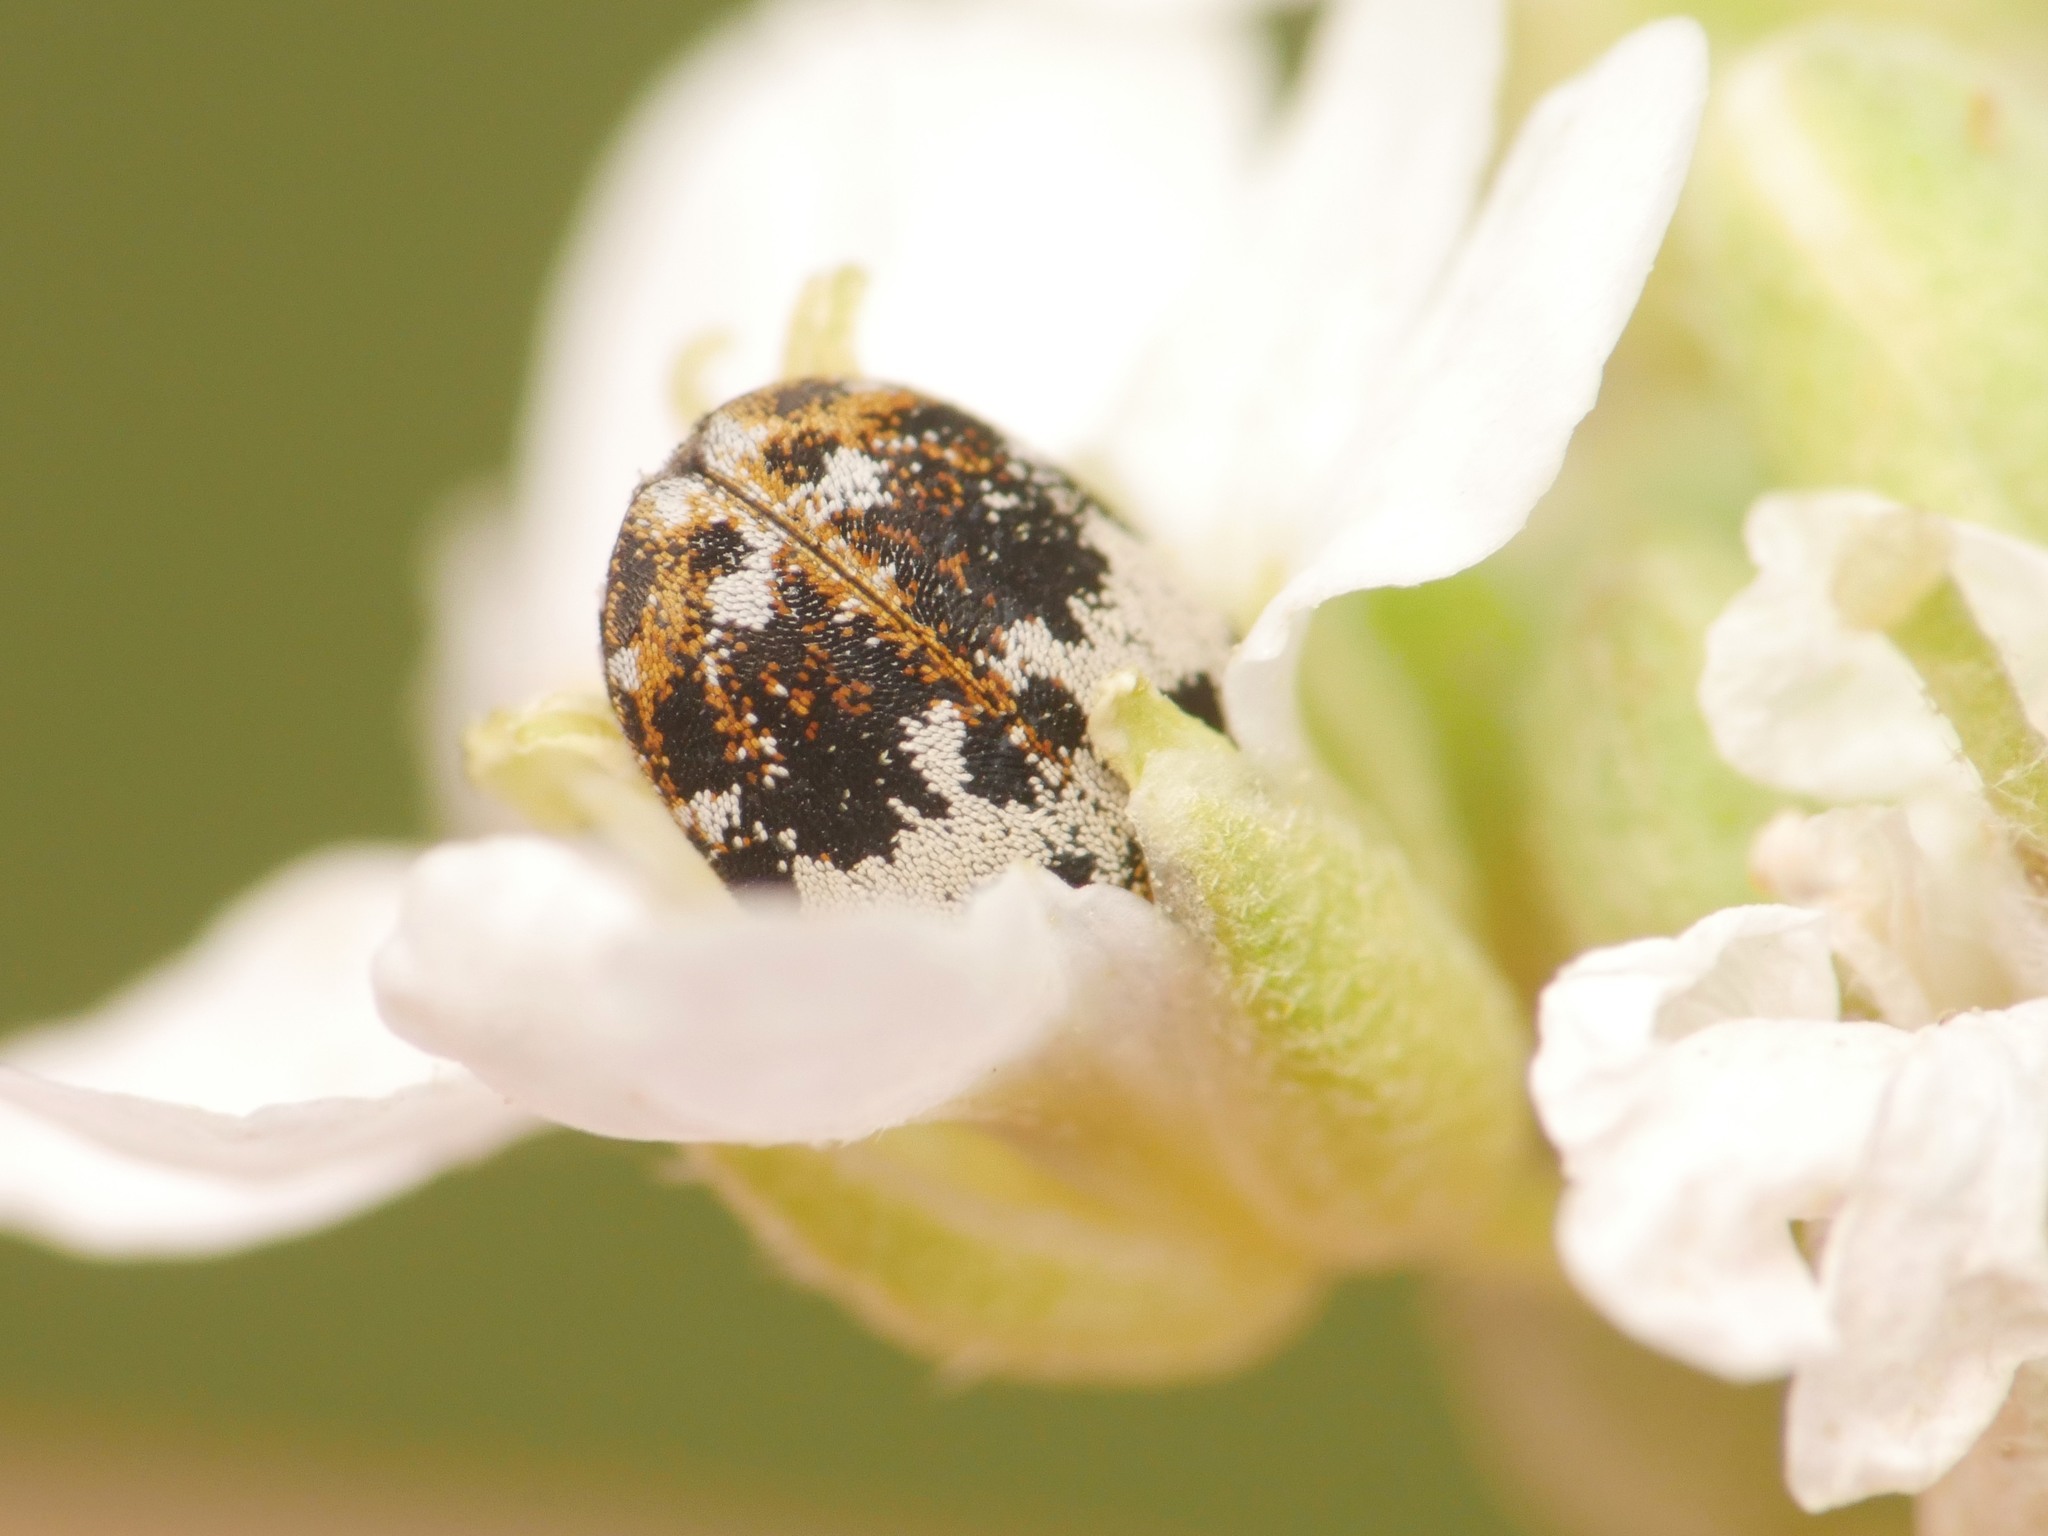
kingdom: Animalia
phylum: Arthropoda
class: Insecta
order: Coleoptera
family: Dermestidae
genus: Anthrenus
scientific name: Anthrenus pimpinellae
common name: Dermestid beetle
